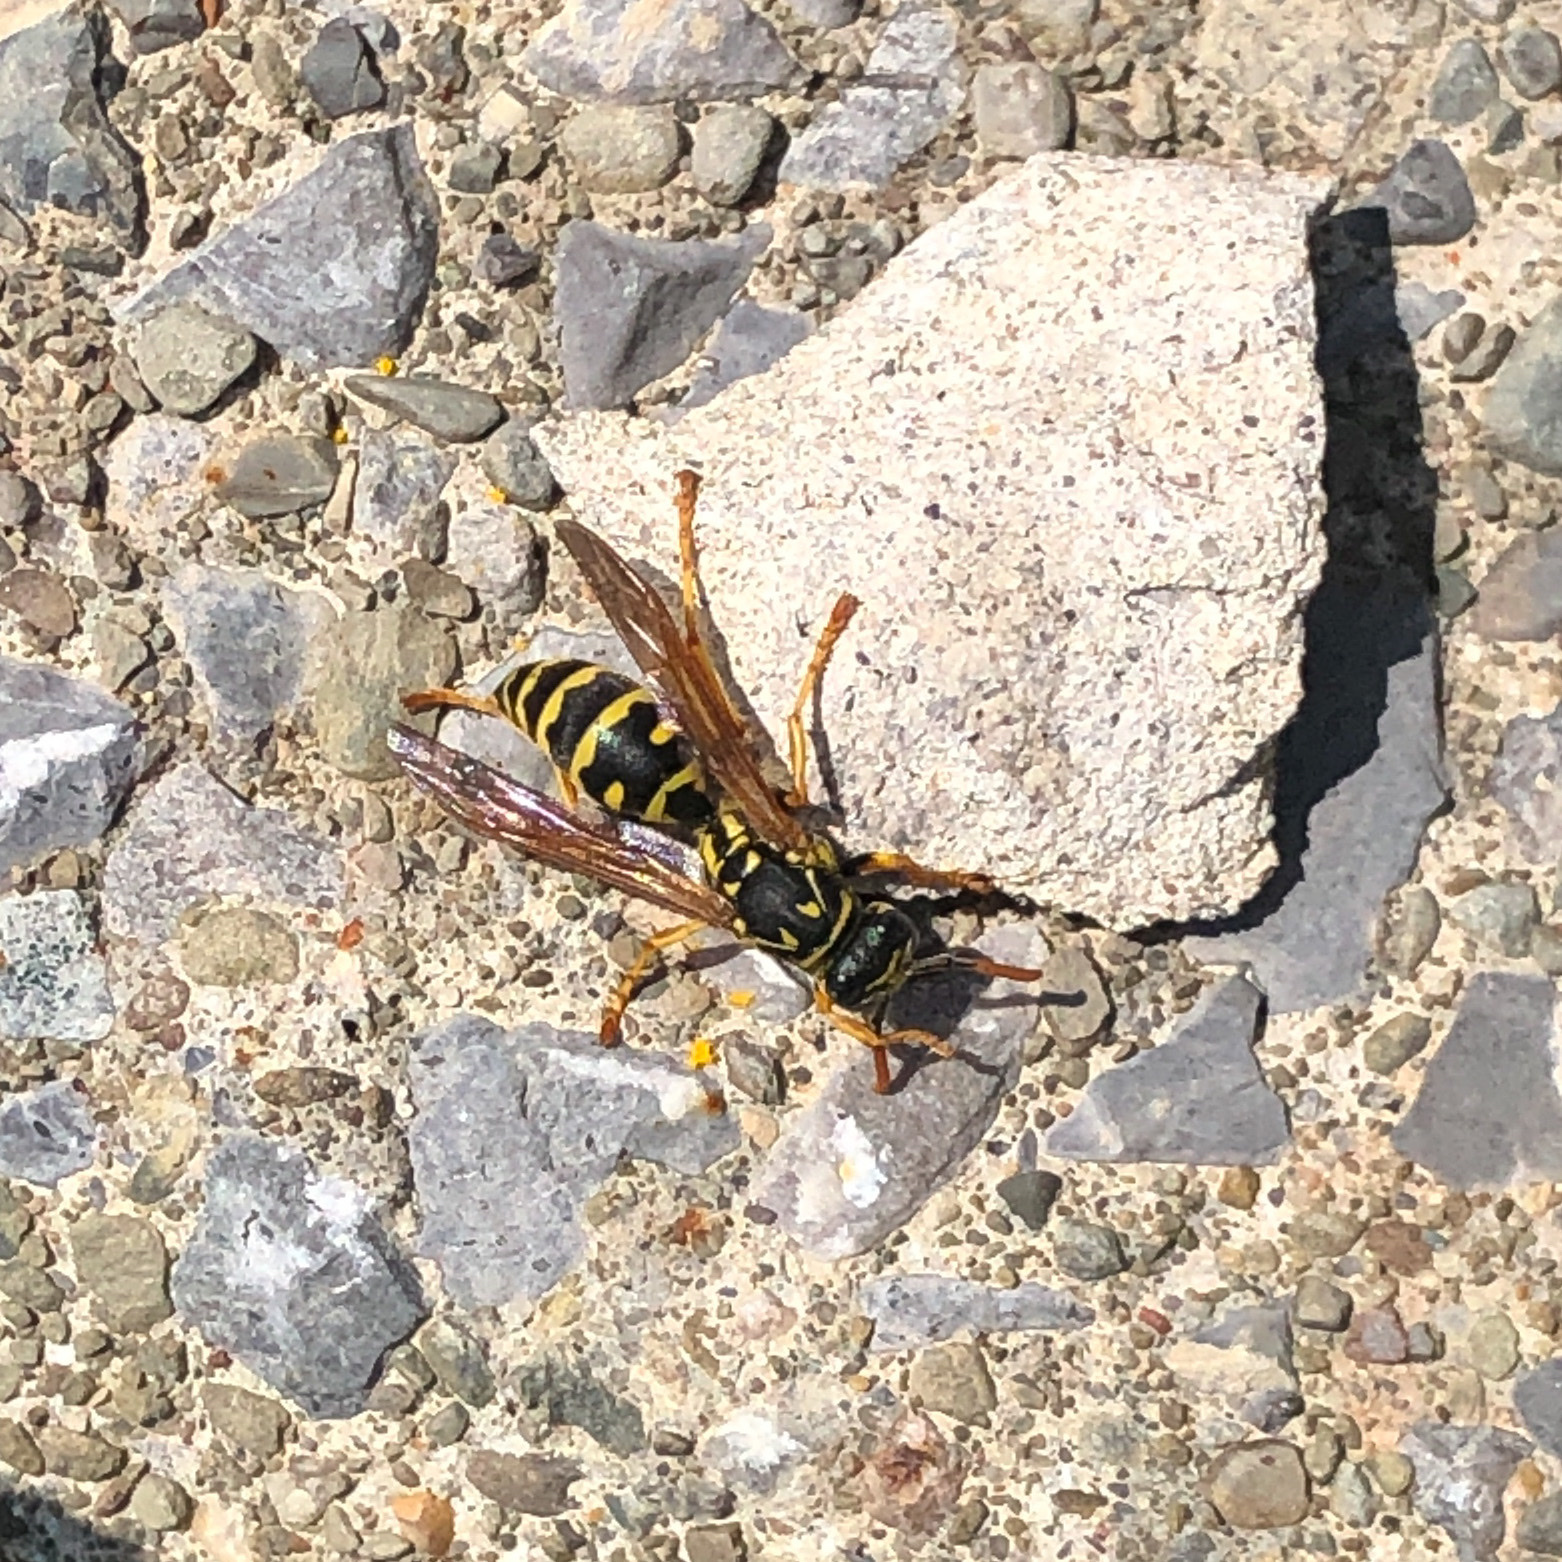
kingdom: Animalia
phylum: Arthropoda
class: Insecta
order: Hymenoptera
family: Eumenidae
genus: Polistes
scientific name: Polistes dominula
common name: Paper wasp
